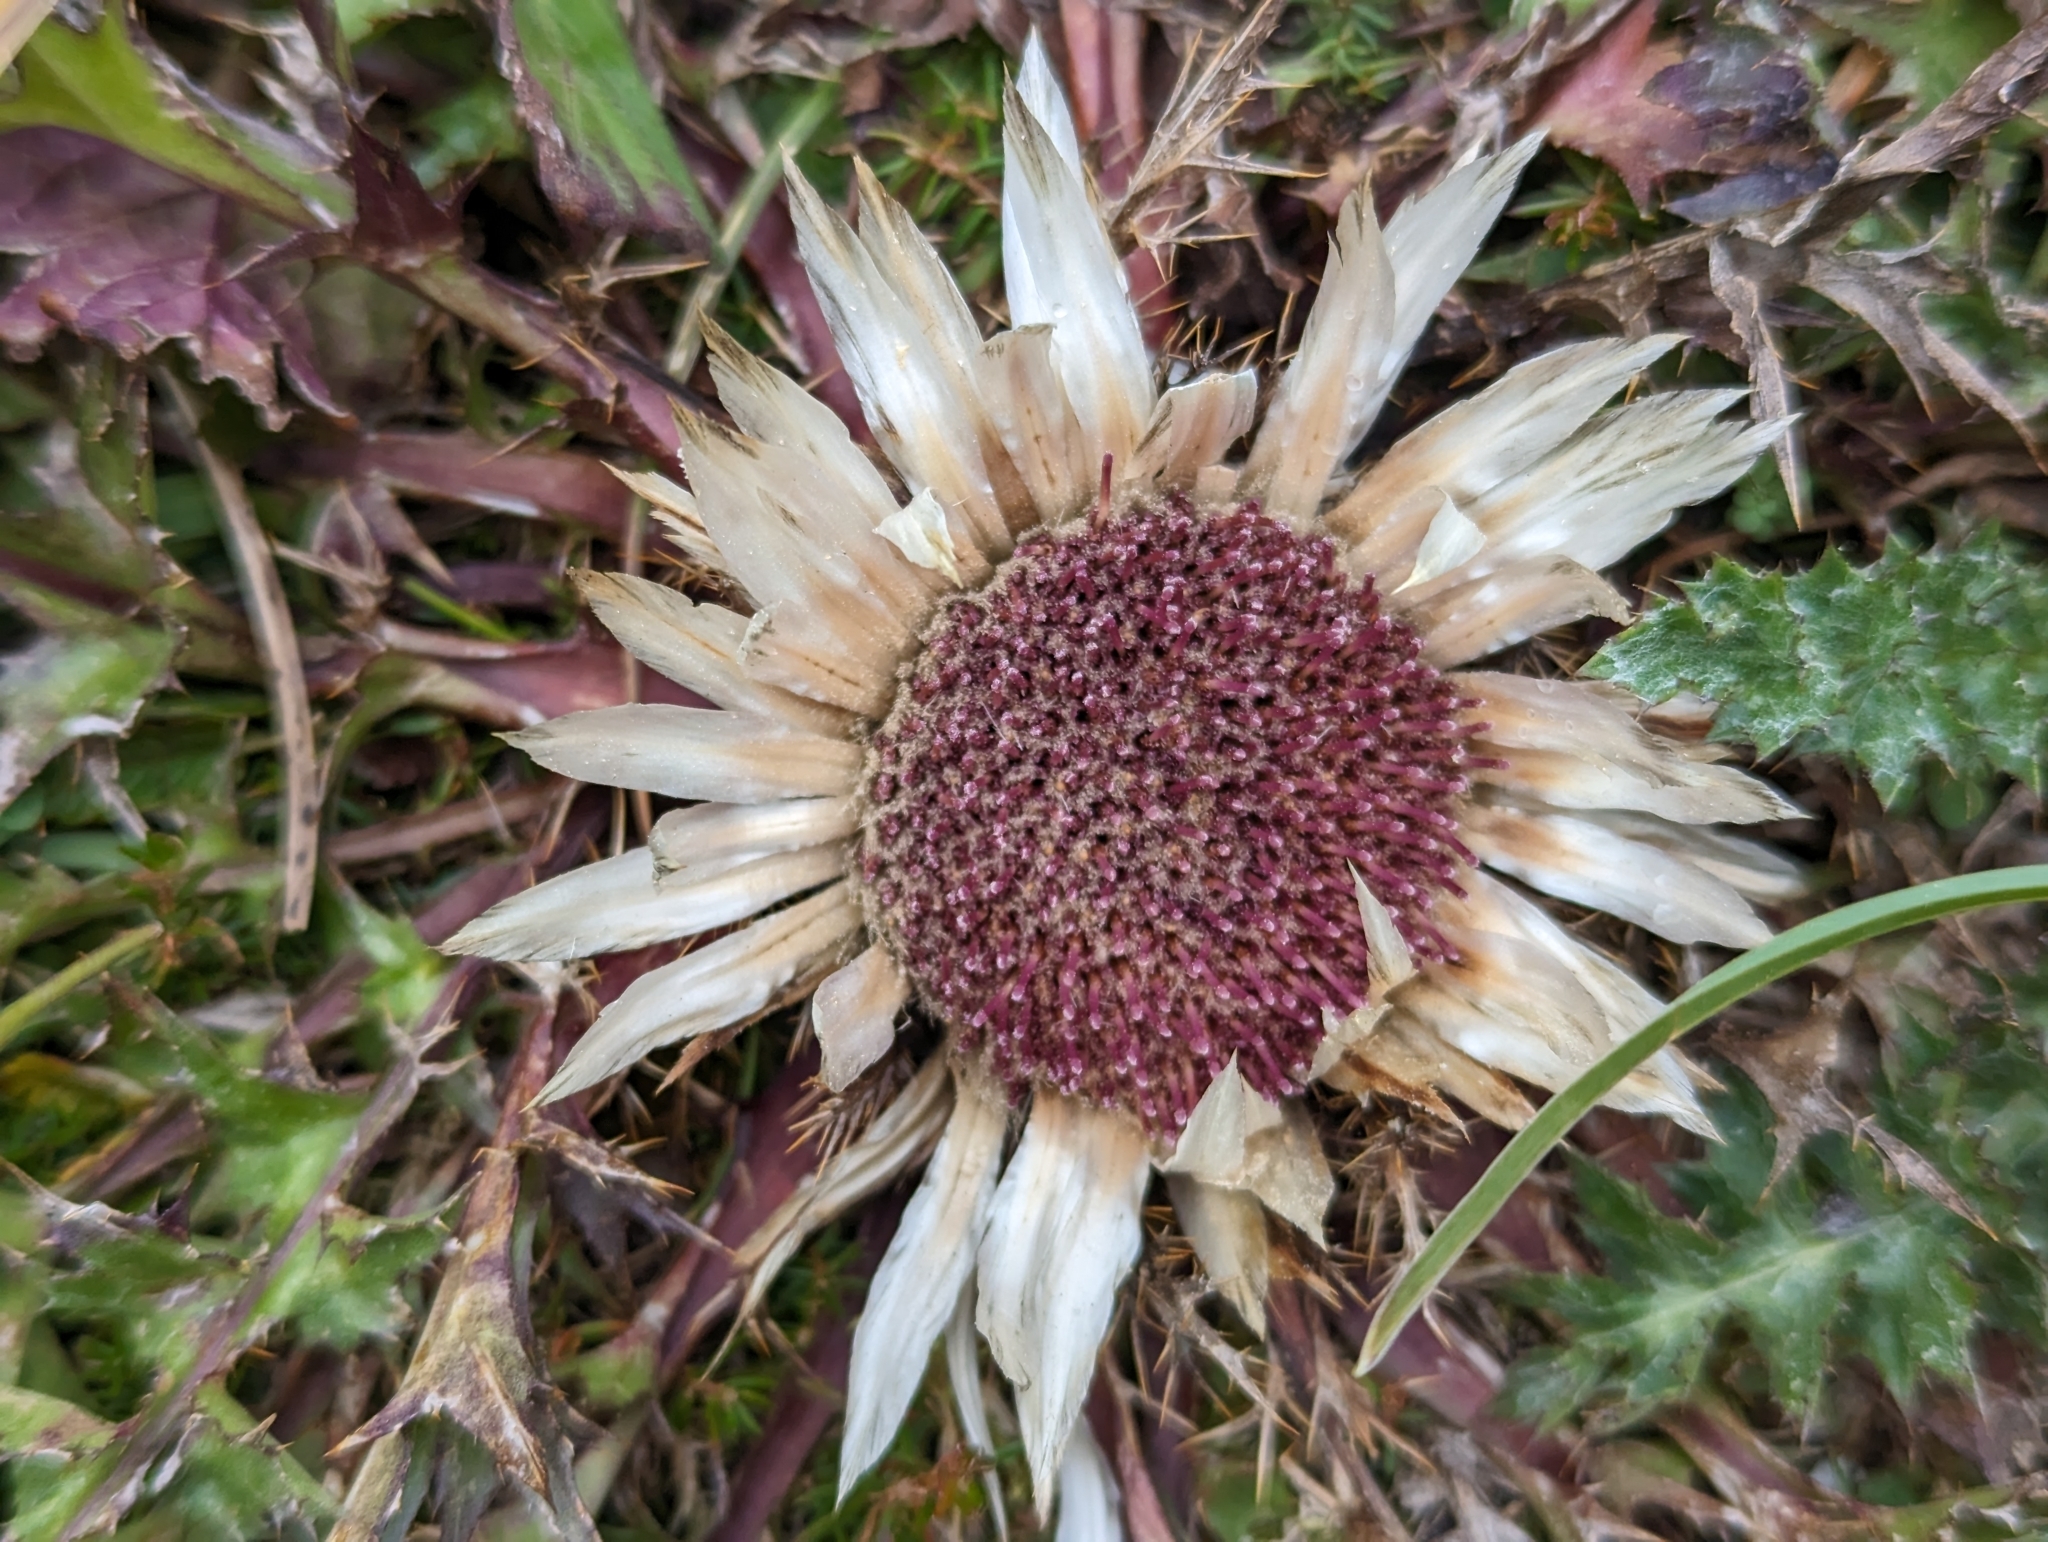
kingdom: Plantae
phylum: Tracheophyta
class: Magnoliopsida
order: Asterales
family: Asteraceae
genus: Carlina
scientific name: Carlina acaulis
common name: Stemless carline thistle
